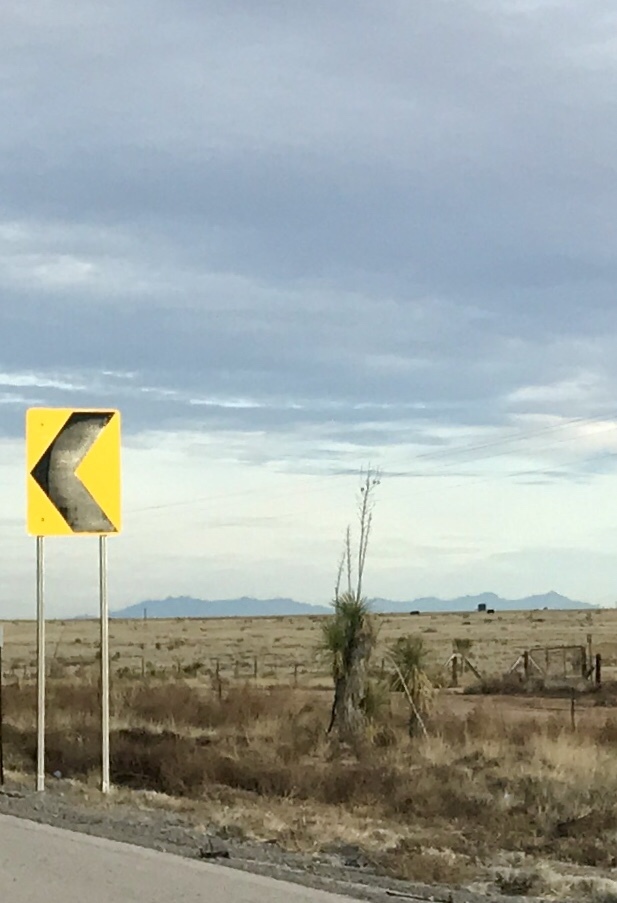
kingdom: Plantae
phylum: Tracheophyta
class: Liliopsida
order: Asparagales
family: Asparagaceae
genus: Yucca
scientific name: Yucca elata
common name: Palmella
